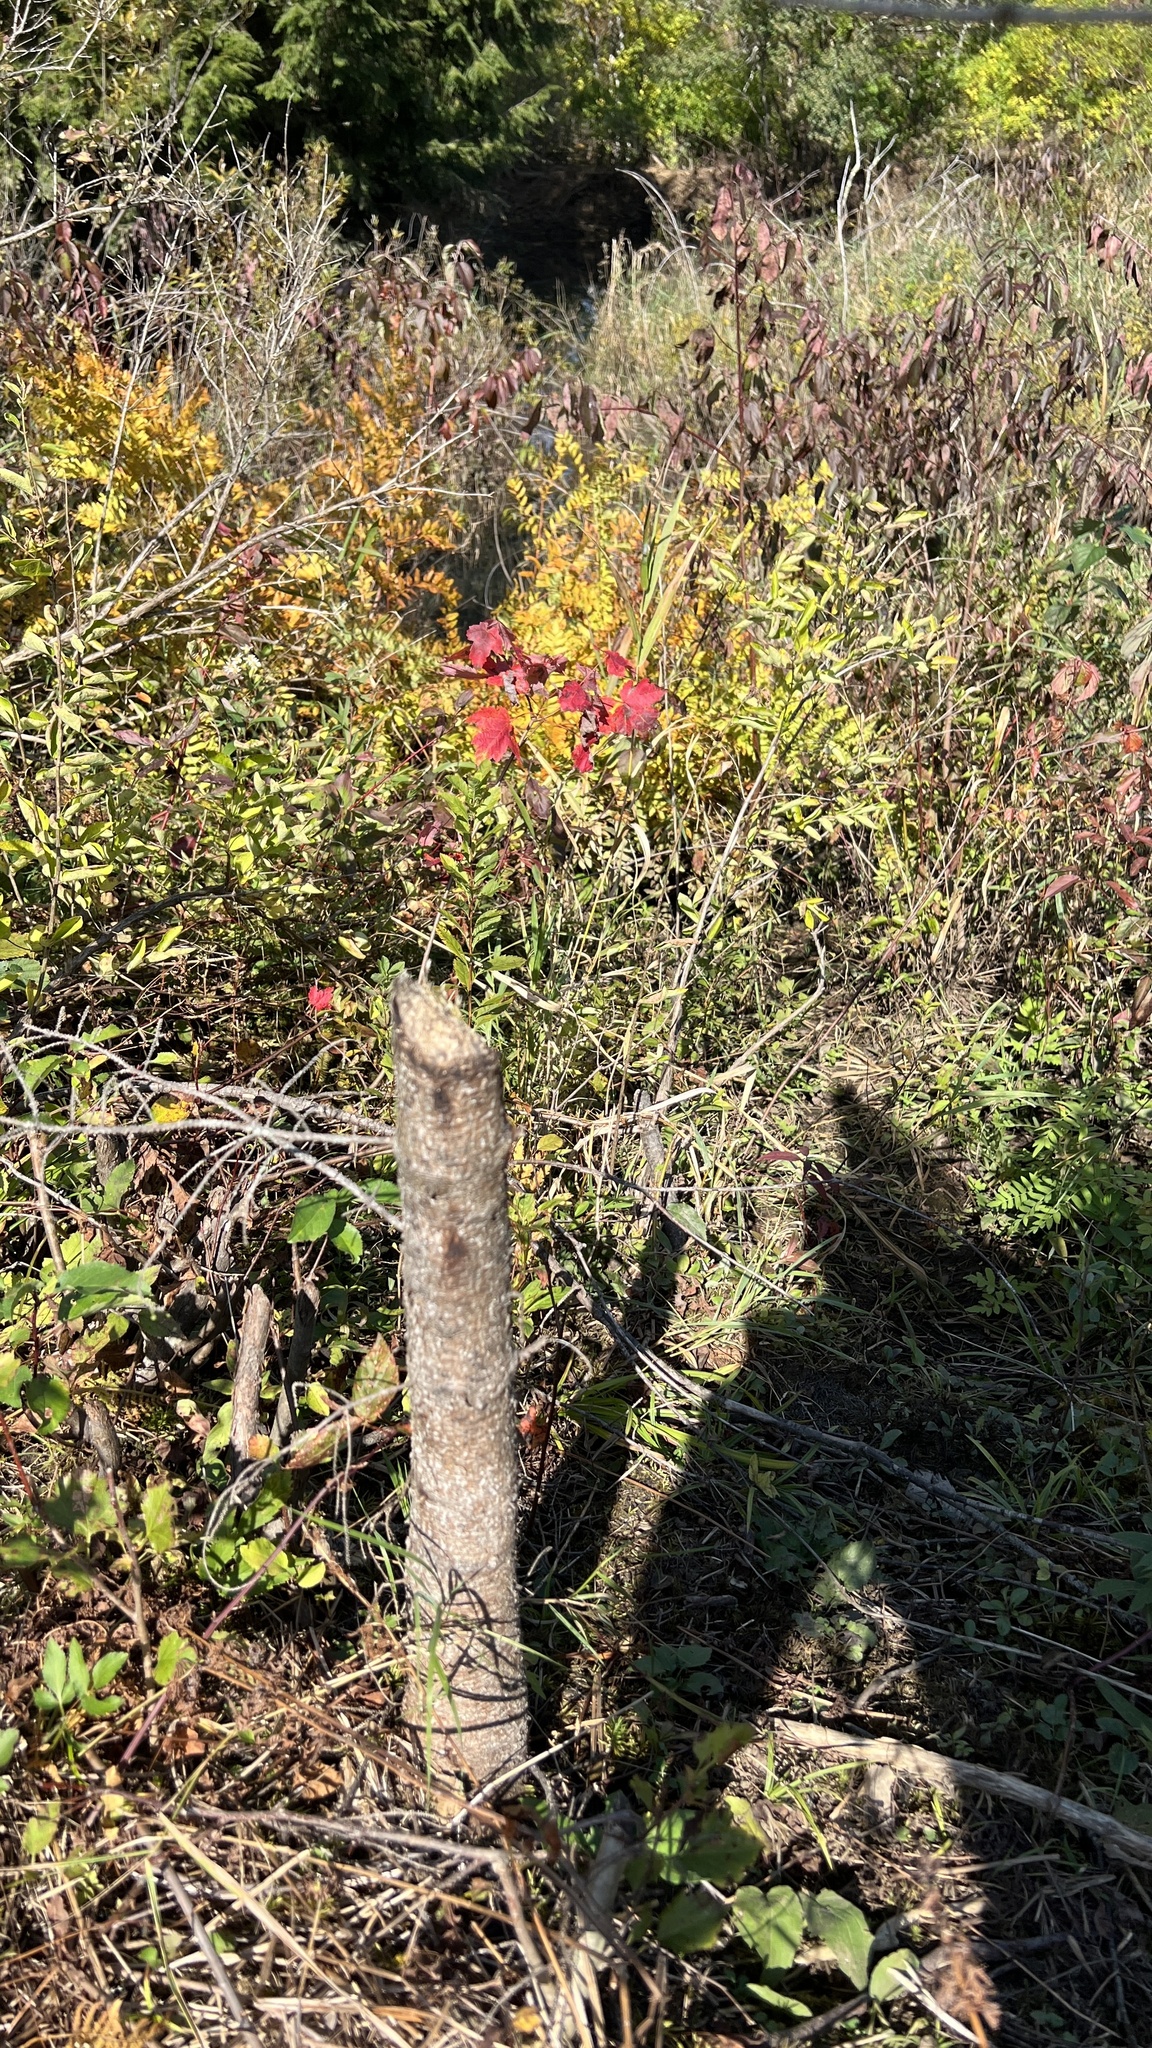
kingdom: Animalia
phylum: Chordata
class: Mammalia
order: Rodentia
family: Castoridae
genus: Castor
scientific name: Castor canadensis
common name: American beaver
